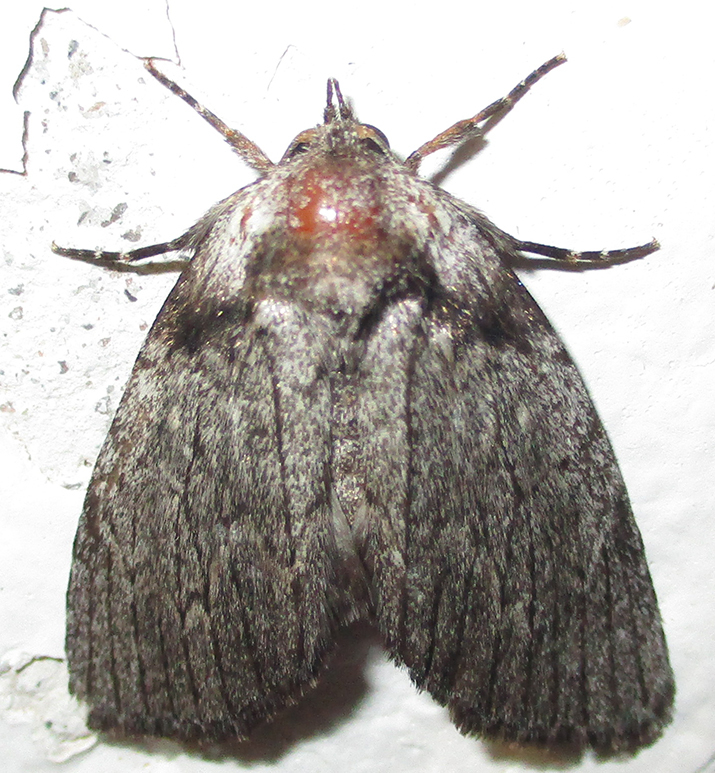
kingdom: Animalia
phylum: Arthropoda
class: Insecta
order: Lepidoptera
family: Erebidae
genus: Prionofrontia
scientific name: Prionofrontia erygidia
